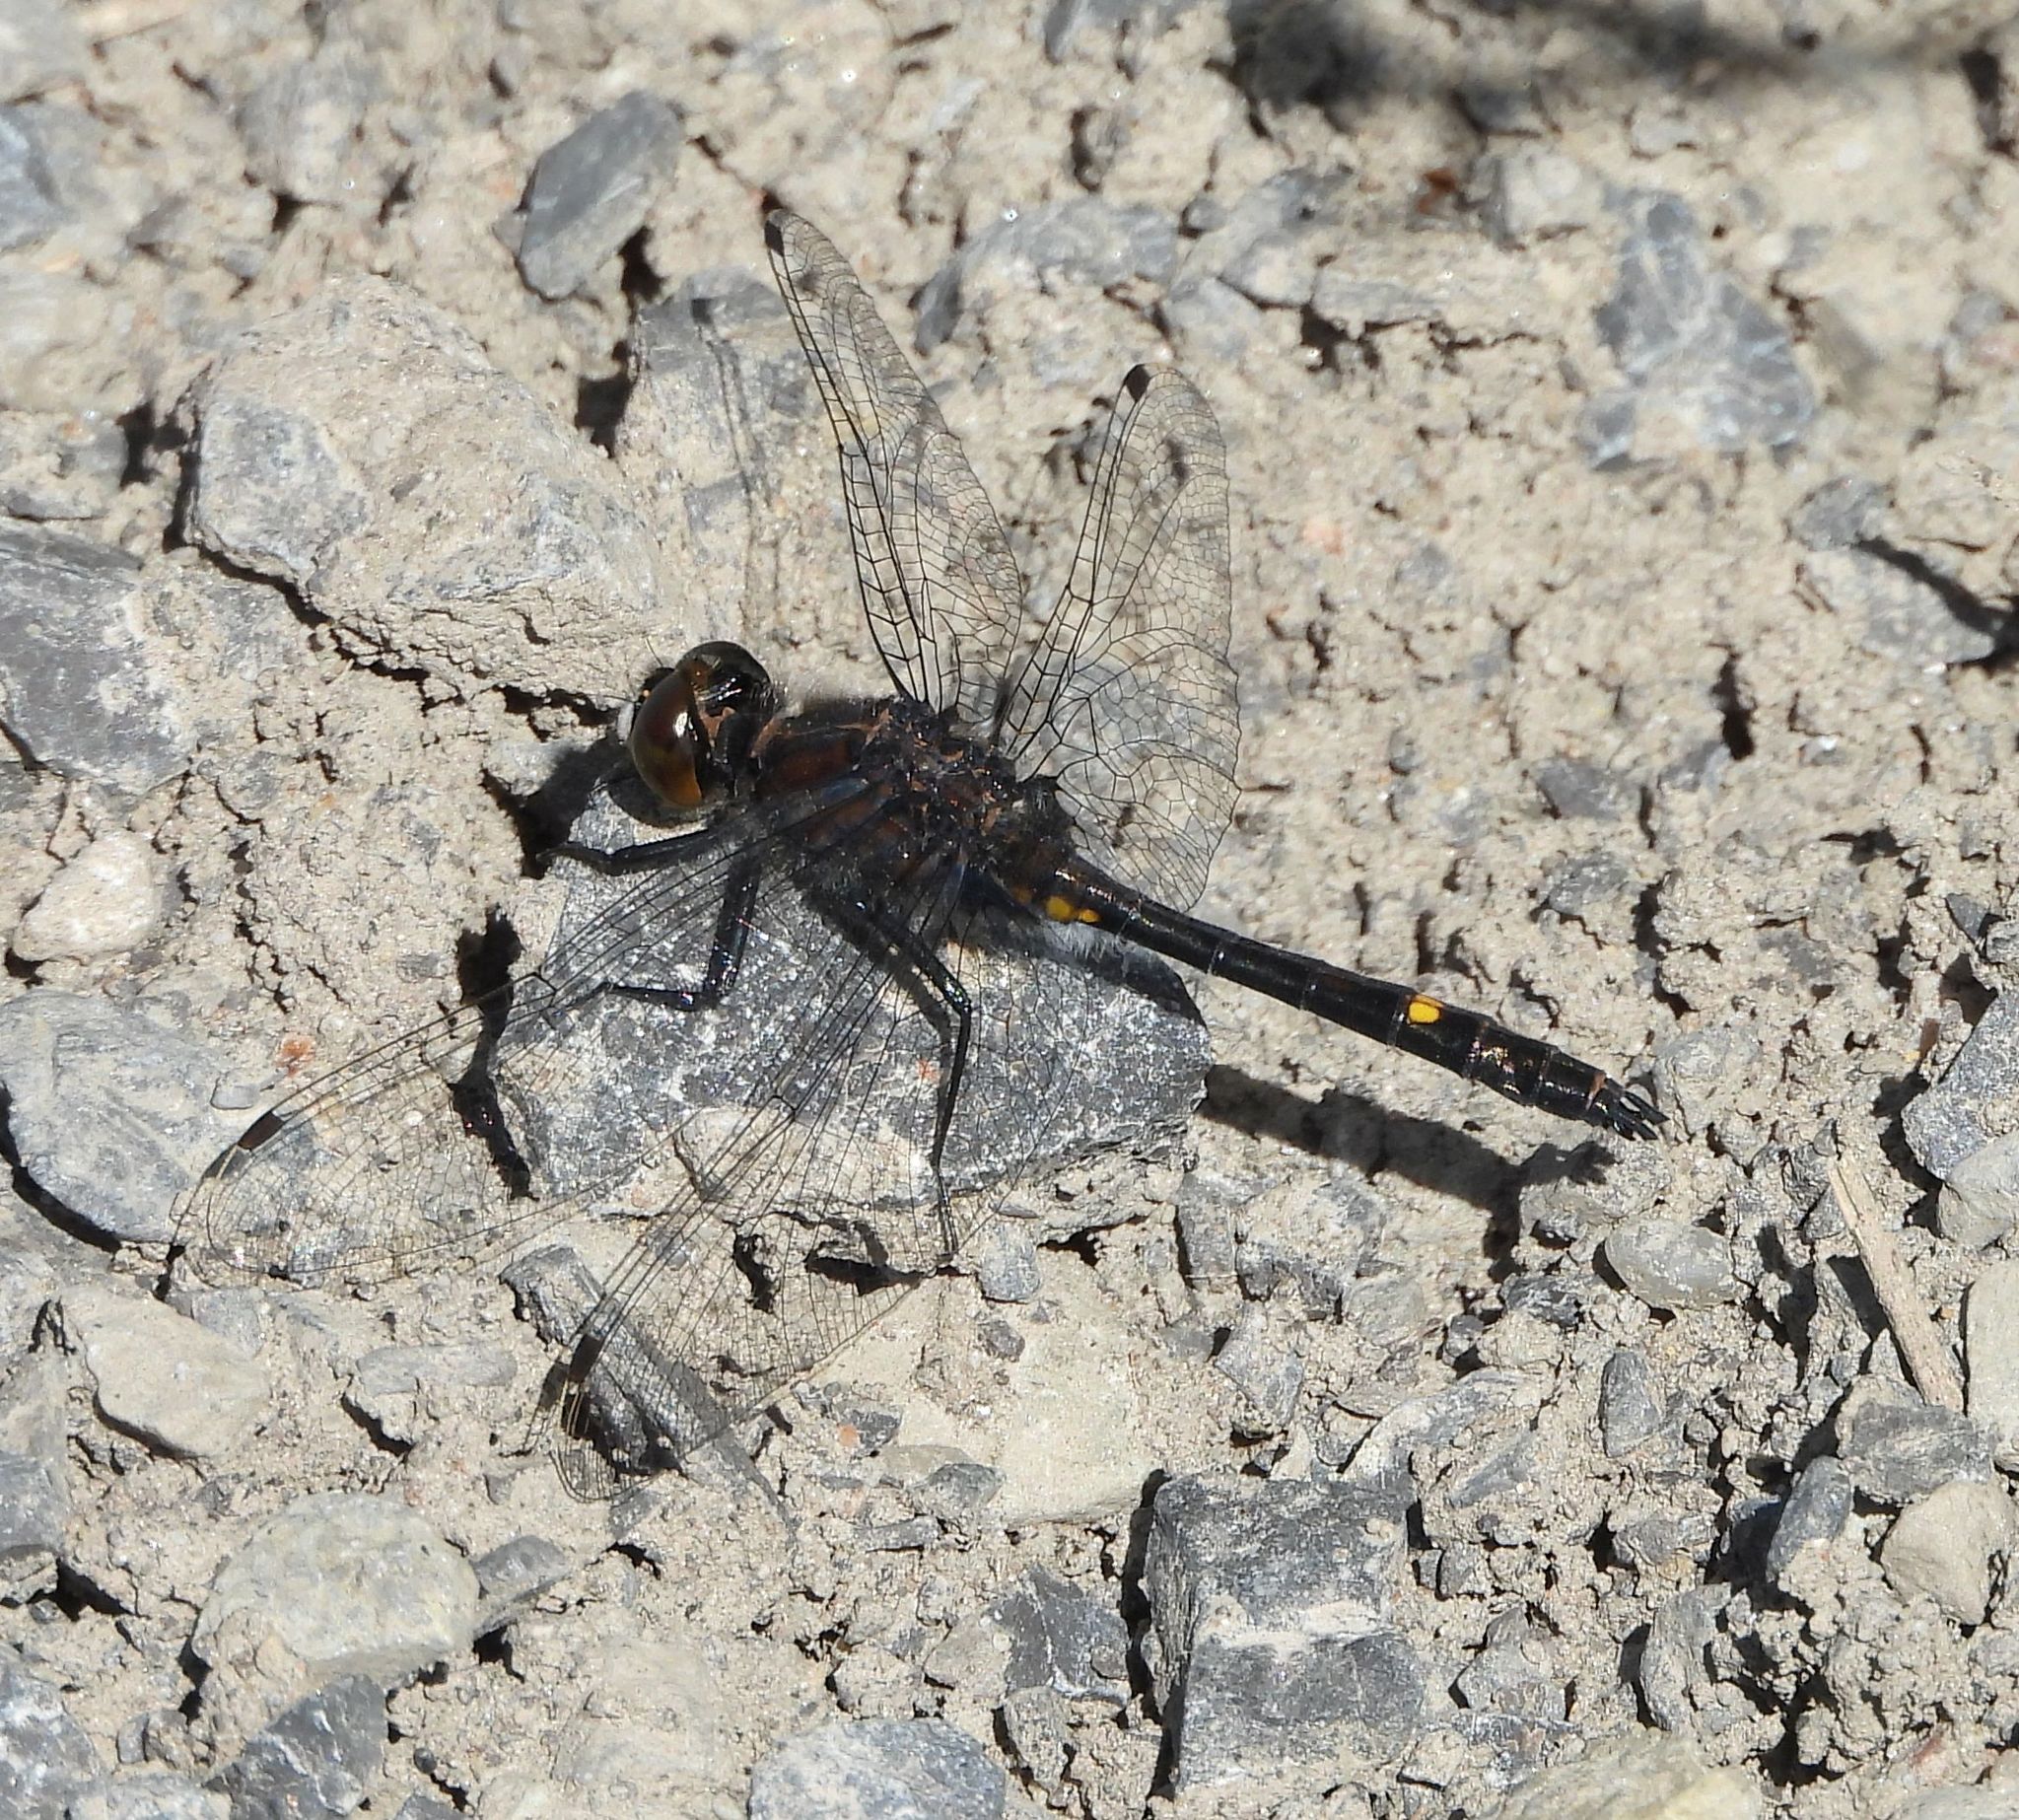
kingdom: Animalia
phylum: Arthropoda
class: Insecta
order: Odonata
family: Libellulidae
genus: Leucorrhinia
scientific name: Leucorrhinia intacta
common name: Dot-tailed whiteface
